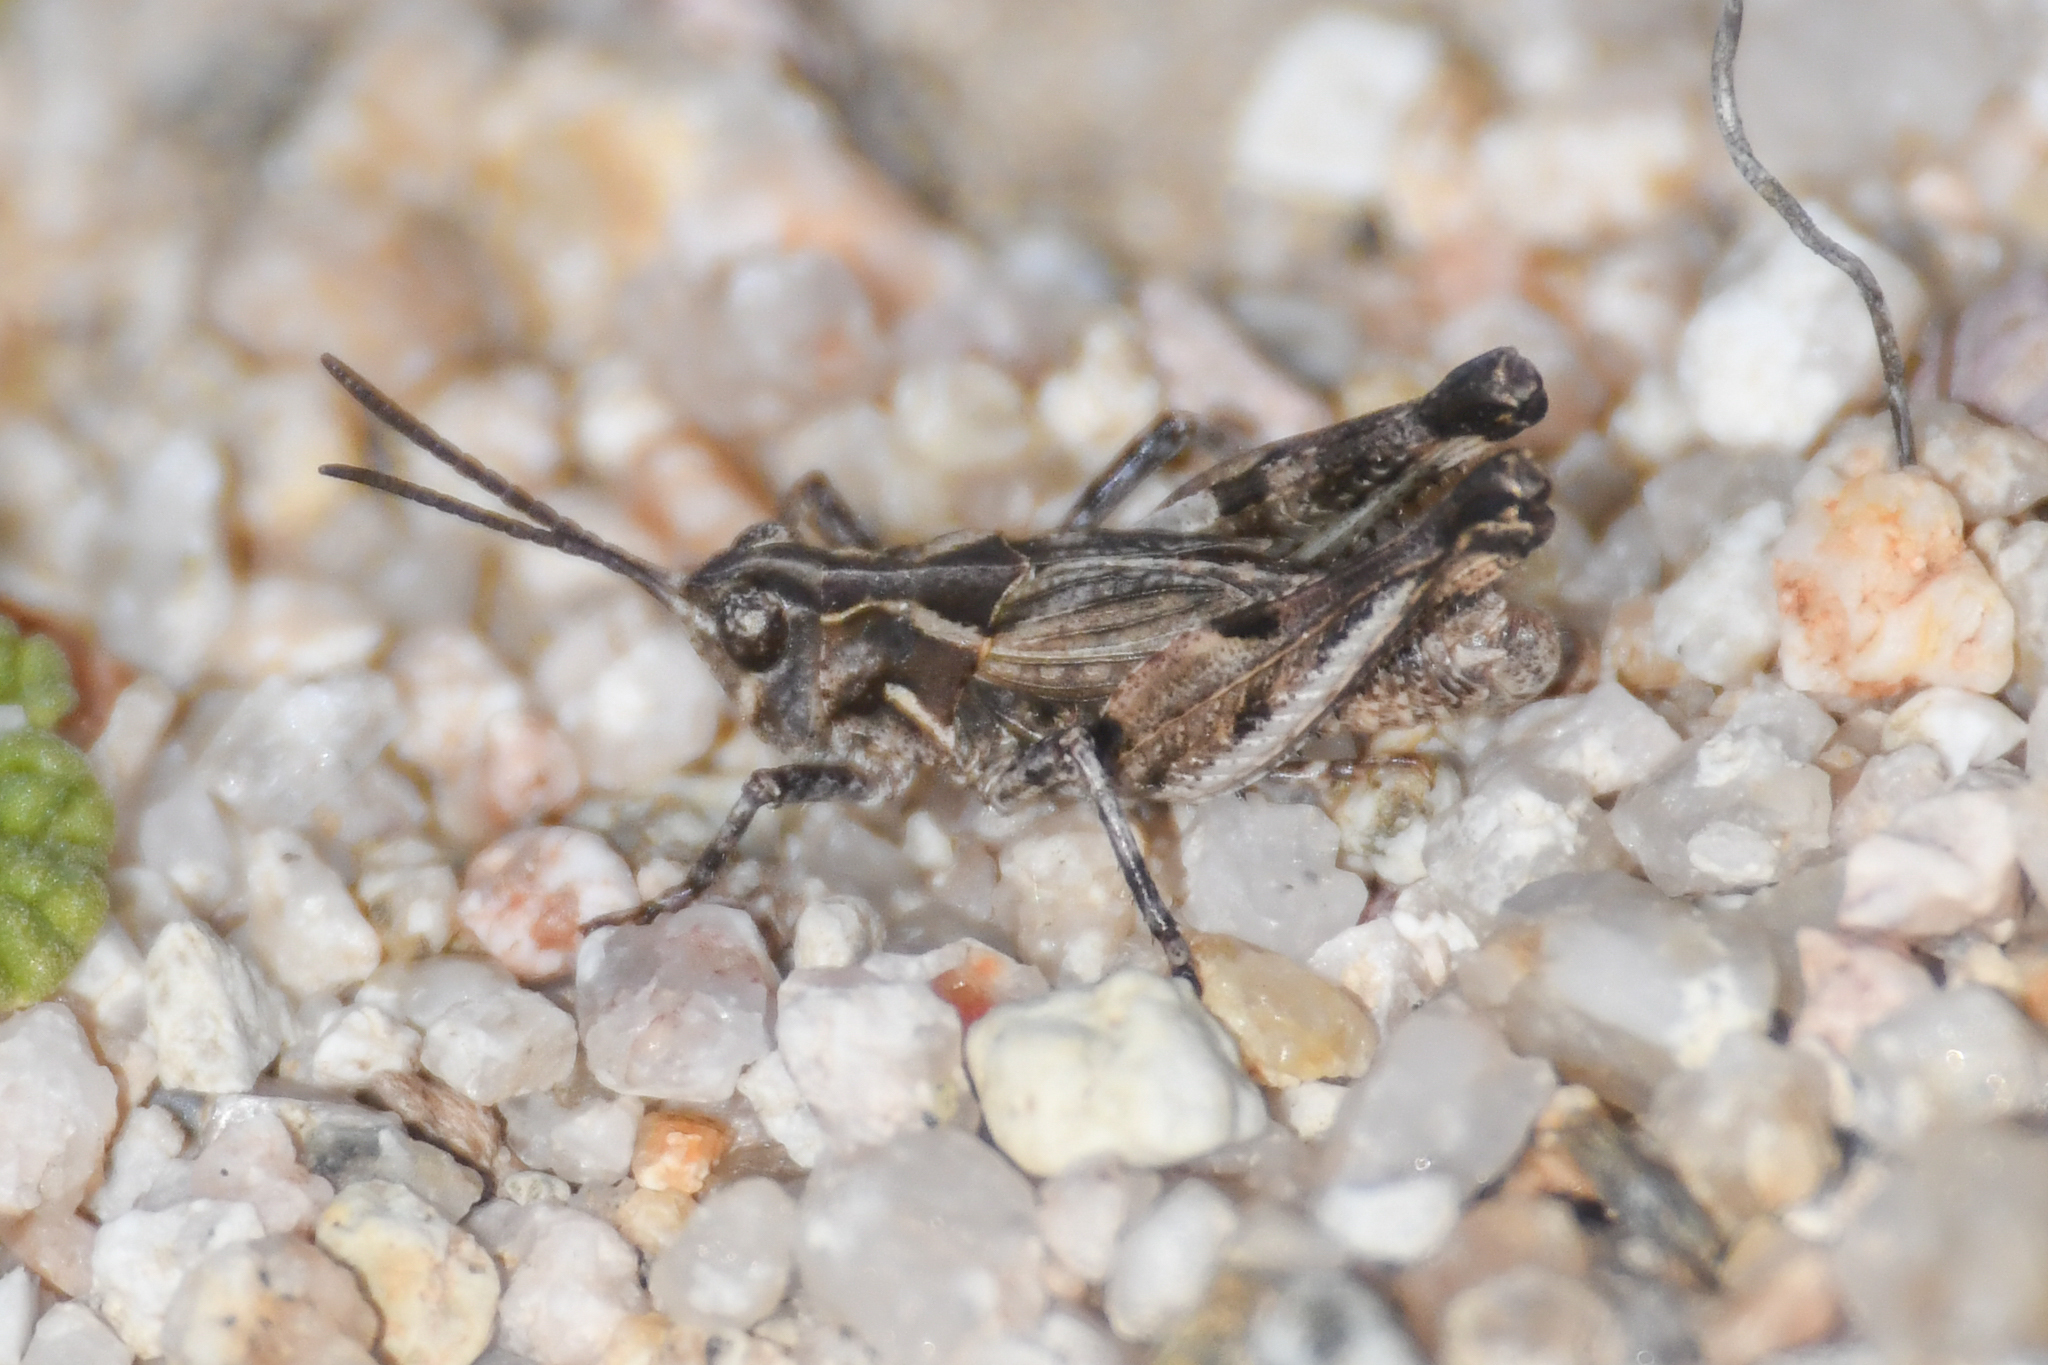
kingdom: Animalia
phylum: Arthropoda
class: Insecta
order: Orthoptera
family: Acrididae
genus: Esselenia
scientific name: Esselenia vanduzeei
